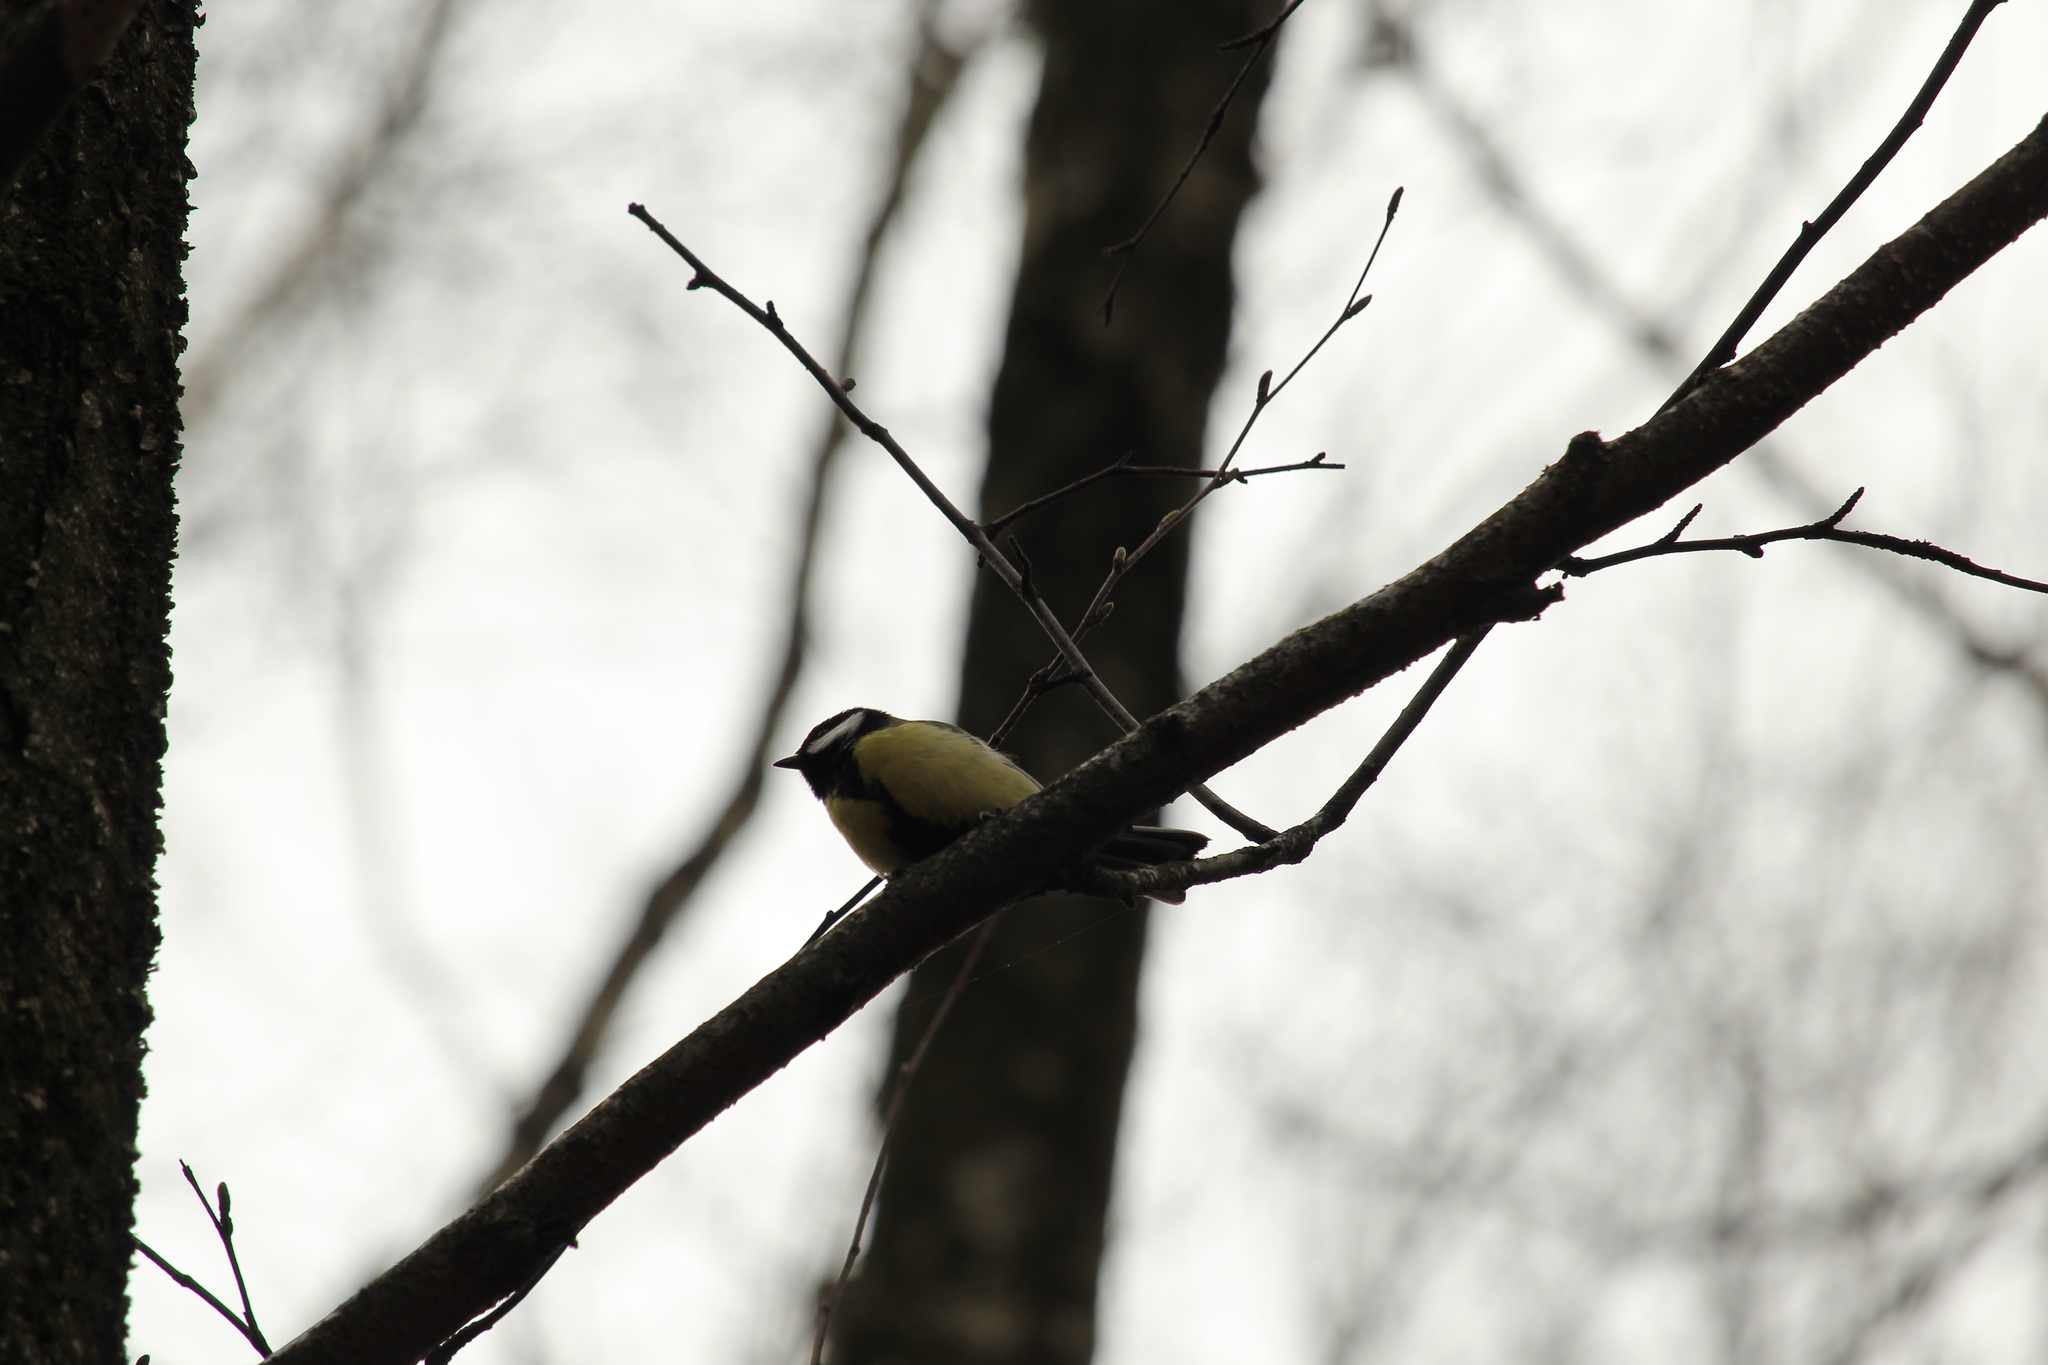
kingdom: Animalia
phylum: Chordata
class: Aves
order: Passeriformes
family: Paridae
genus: Parus
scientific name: Parus major
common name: Great tit
